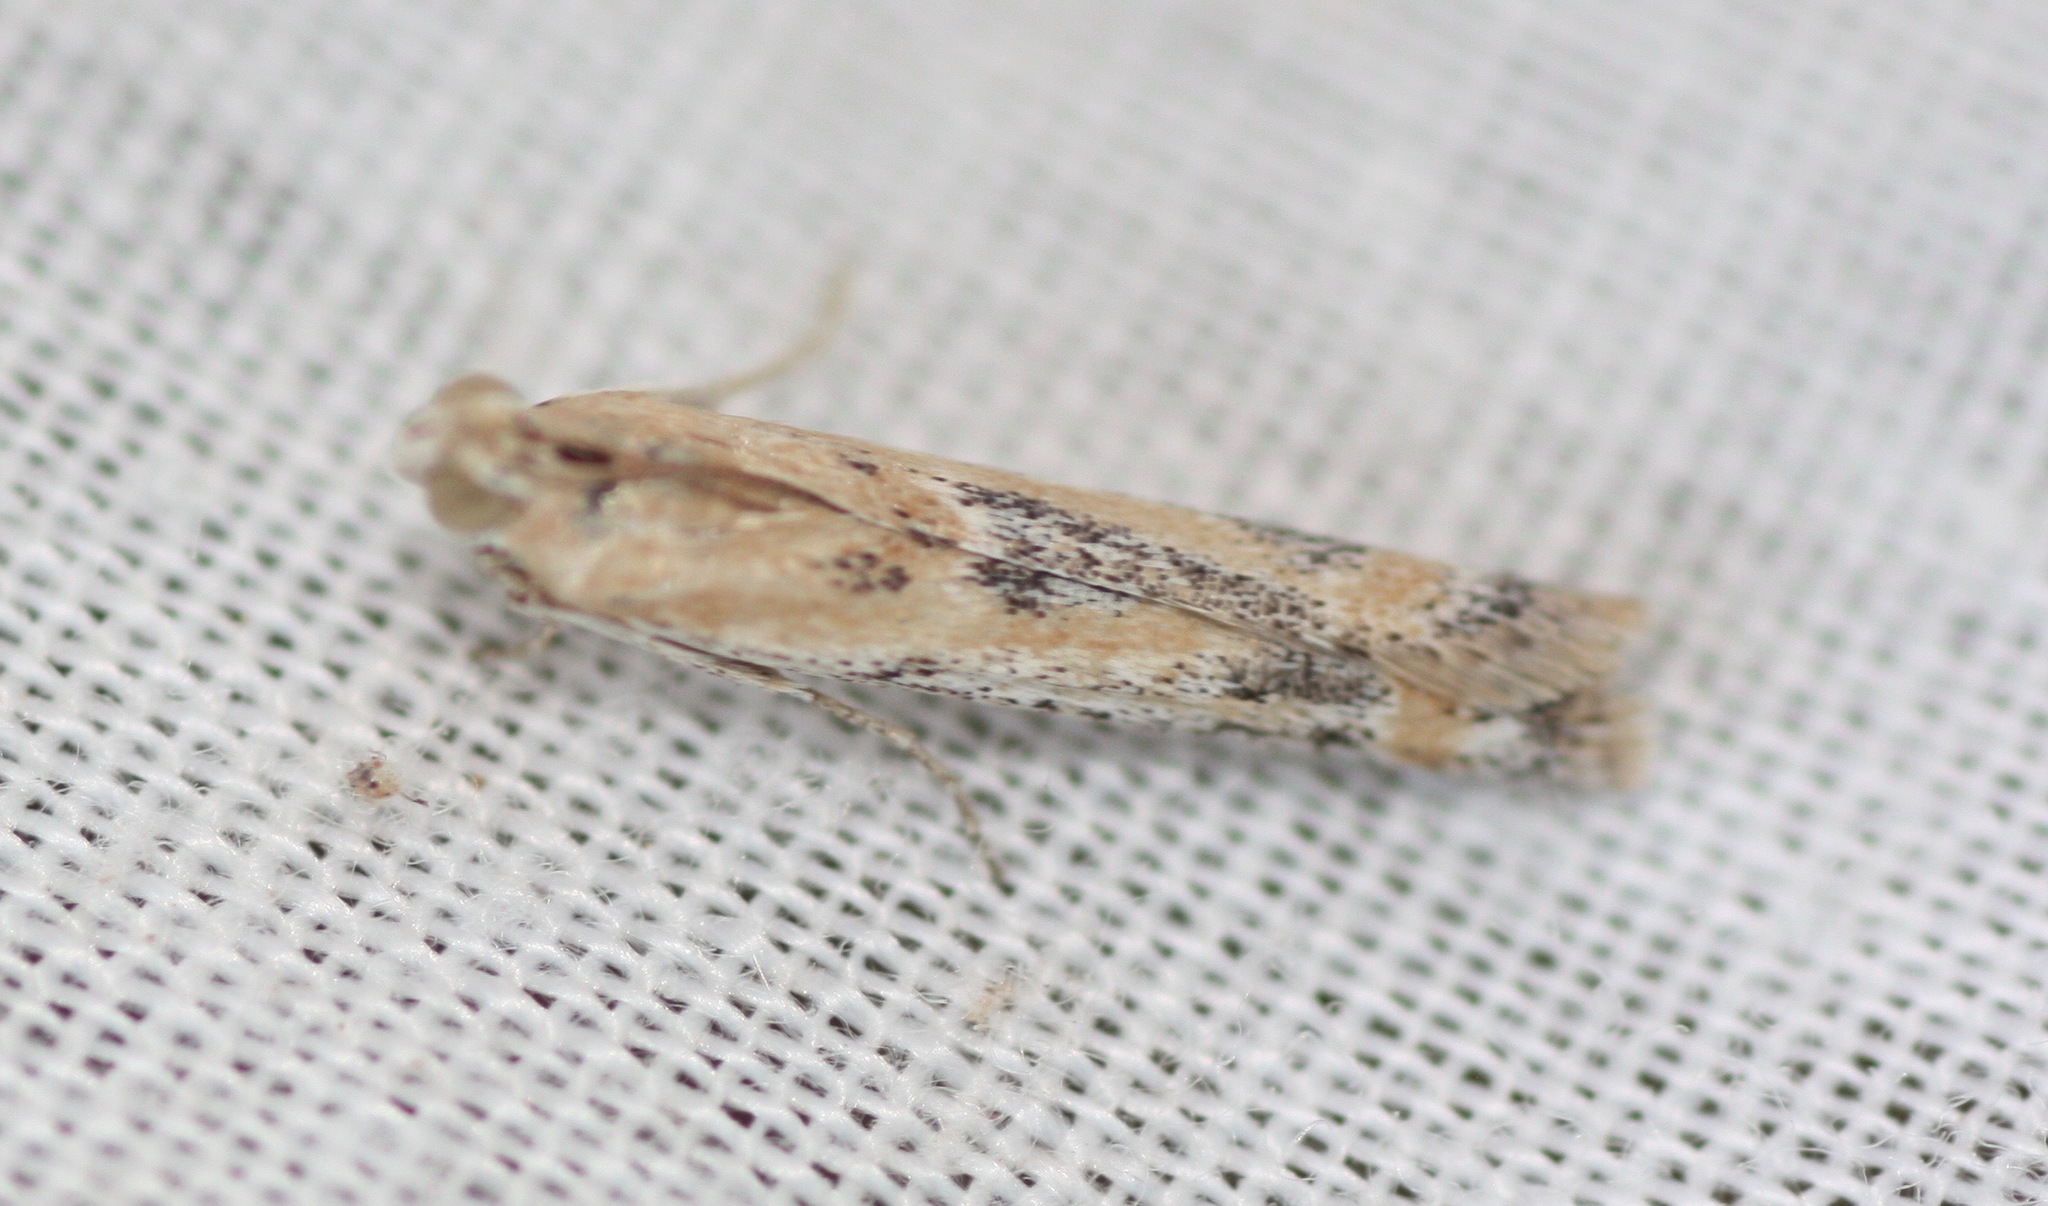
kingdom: Animalia
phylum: Arthropoda
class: Insecta
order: Lepidoptera
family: Pyralidae
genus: Ancylosis
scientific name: Ancylosis morrisonella
